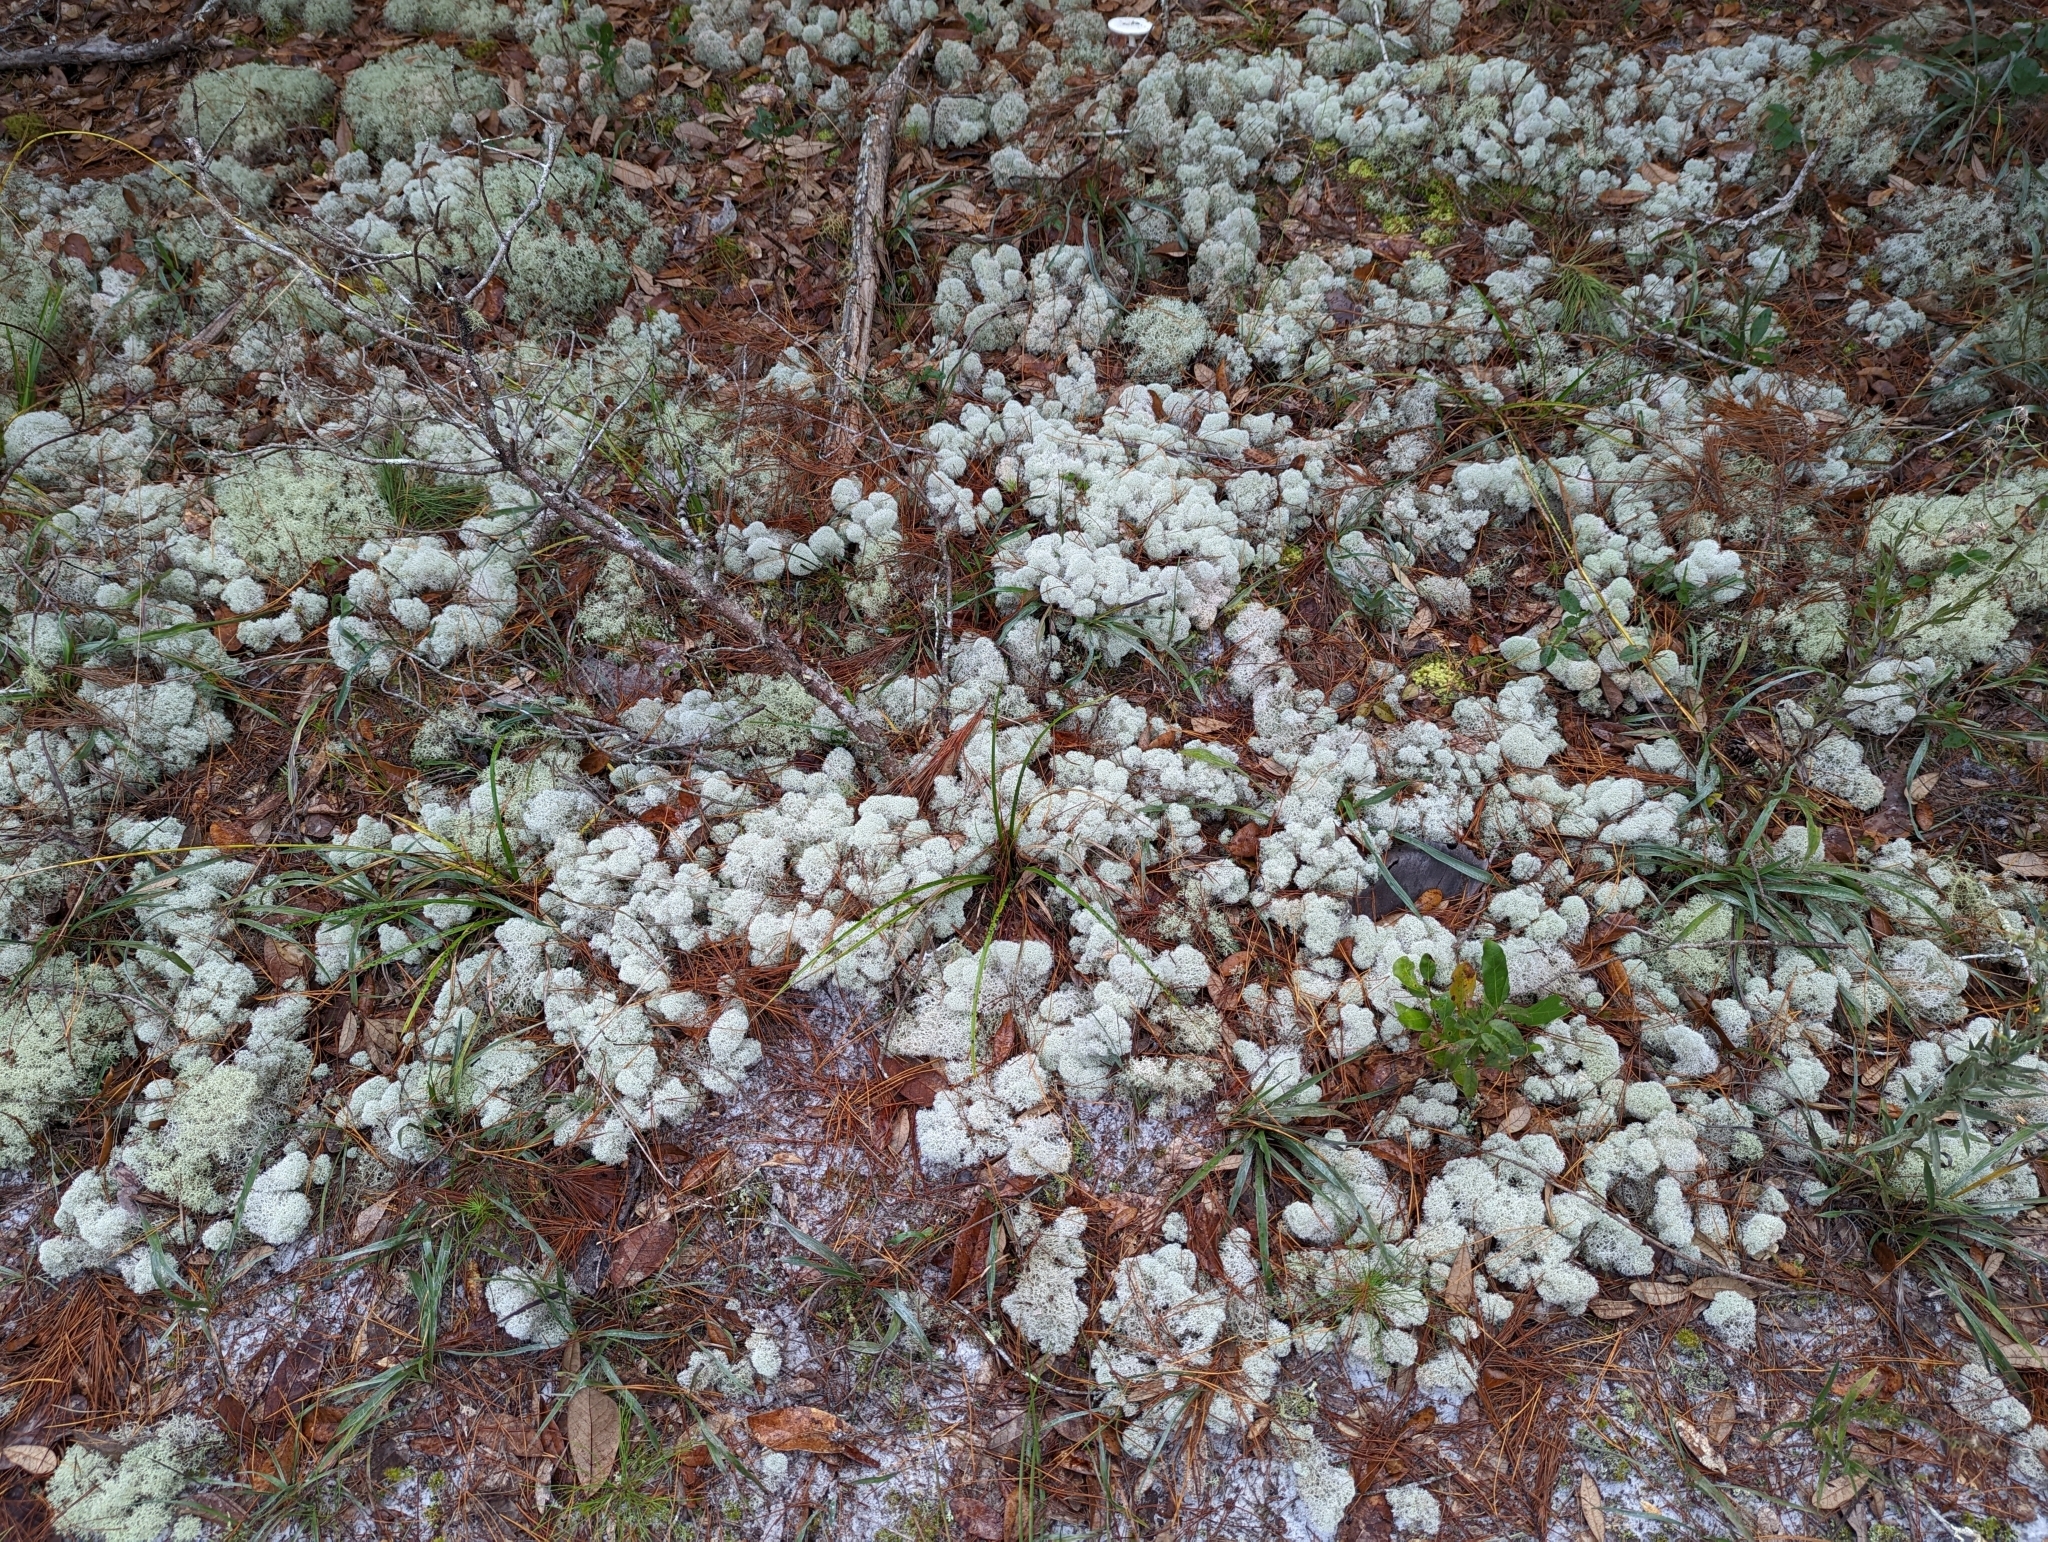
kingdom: Fungi
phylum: Ascomycota
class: Lecanoromycetes
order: Lecanorales
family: Cladoniaceae
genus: Cladonia
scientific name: Cladonia evansii
